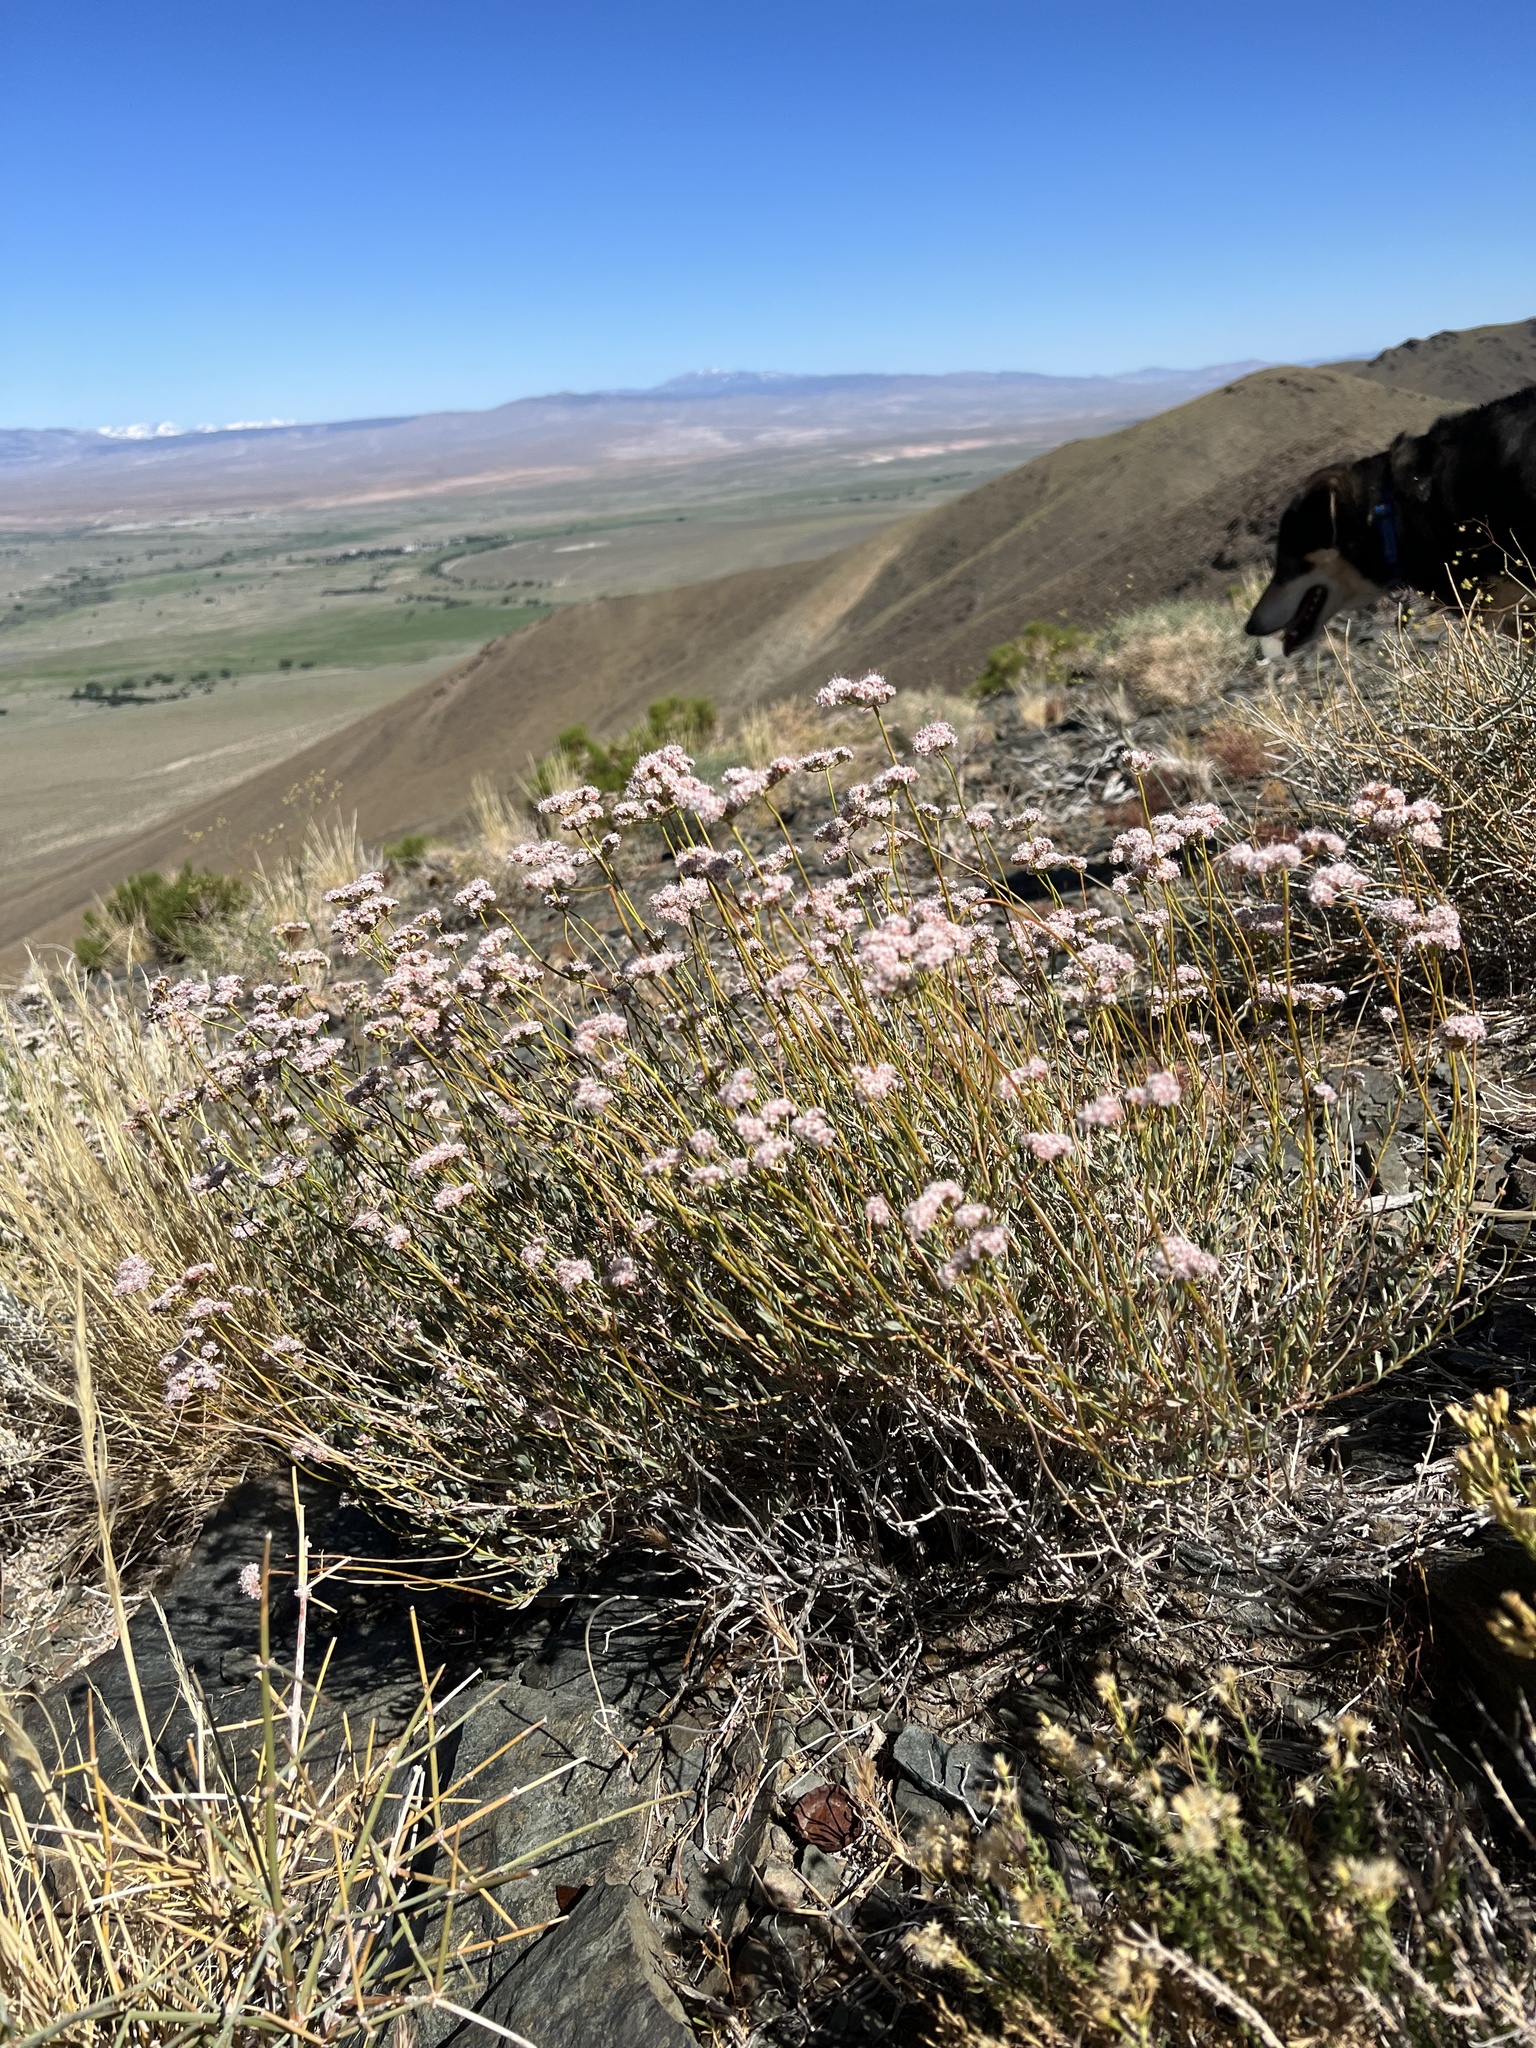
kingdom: Plantae
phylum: Tracheophyta
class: Magnoliopsida
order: Caryophyllales
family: Polygonaceae
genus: Eriogonum
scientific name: Eriogonum fasciculatum
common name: California wild buckwheat
